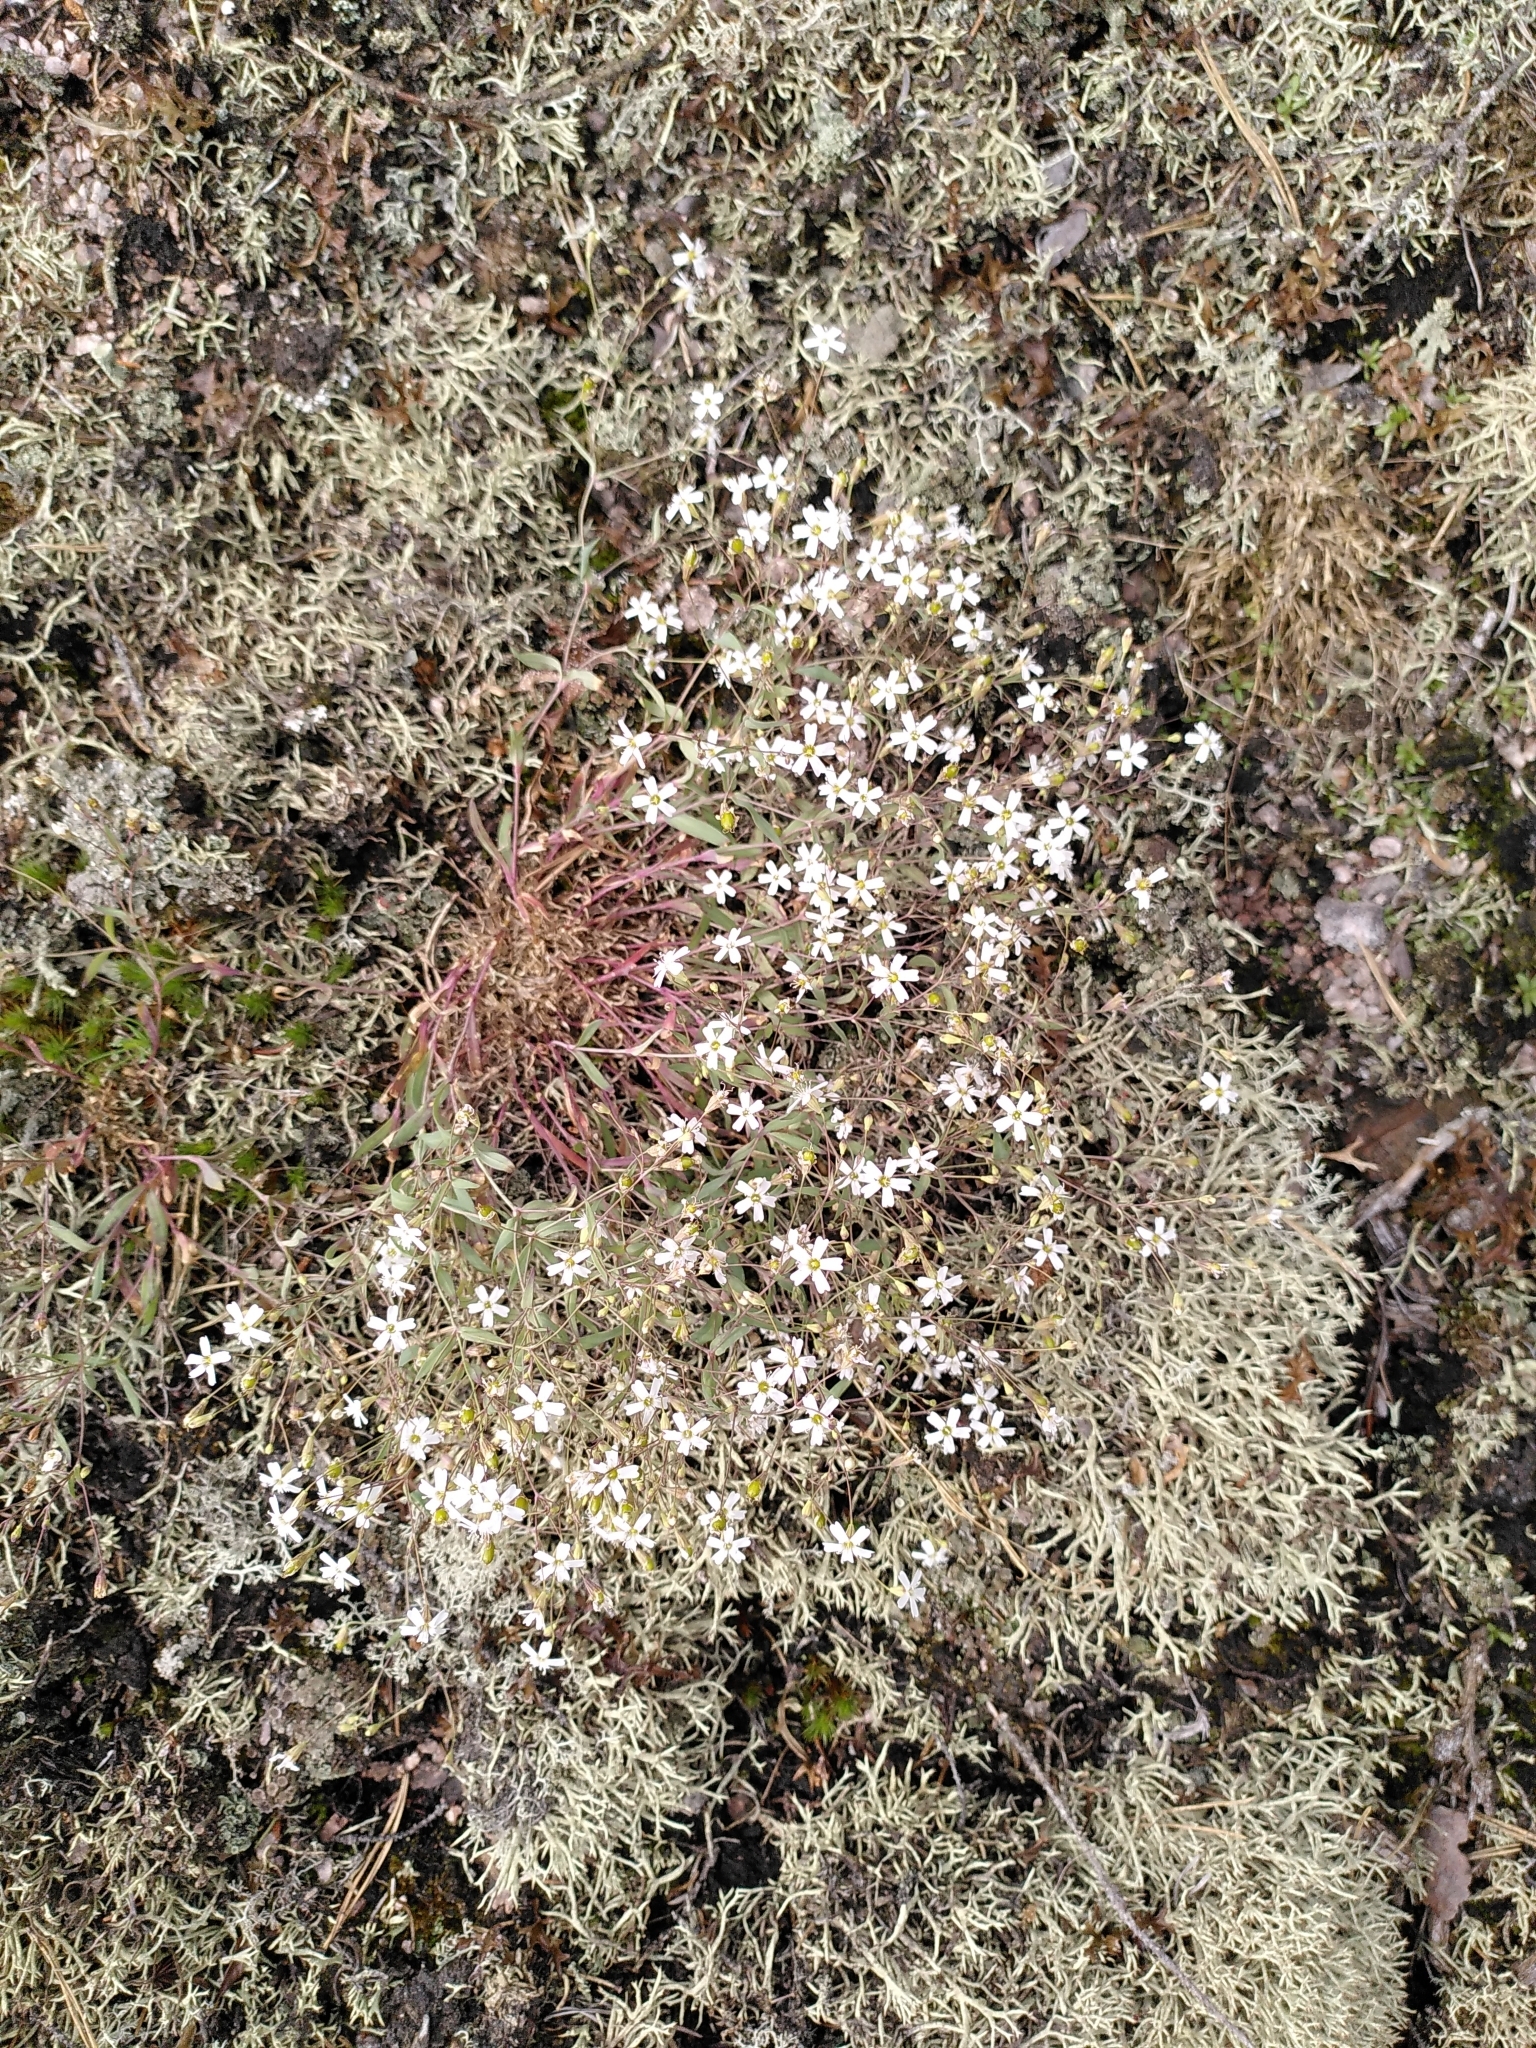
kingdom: Plantae
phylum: Tracheophyta
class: Magnoliopsida
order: Caryophyllales
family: Caryophyllaceae
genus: Atocion
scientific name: Atocion rupestre
